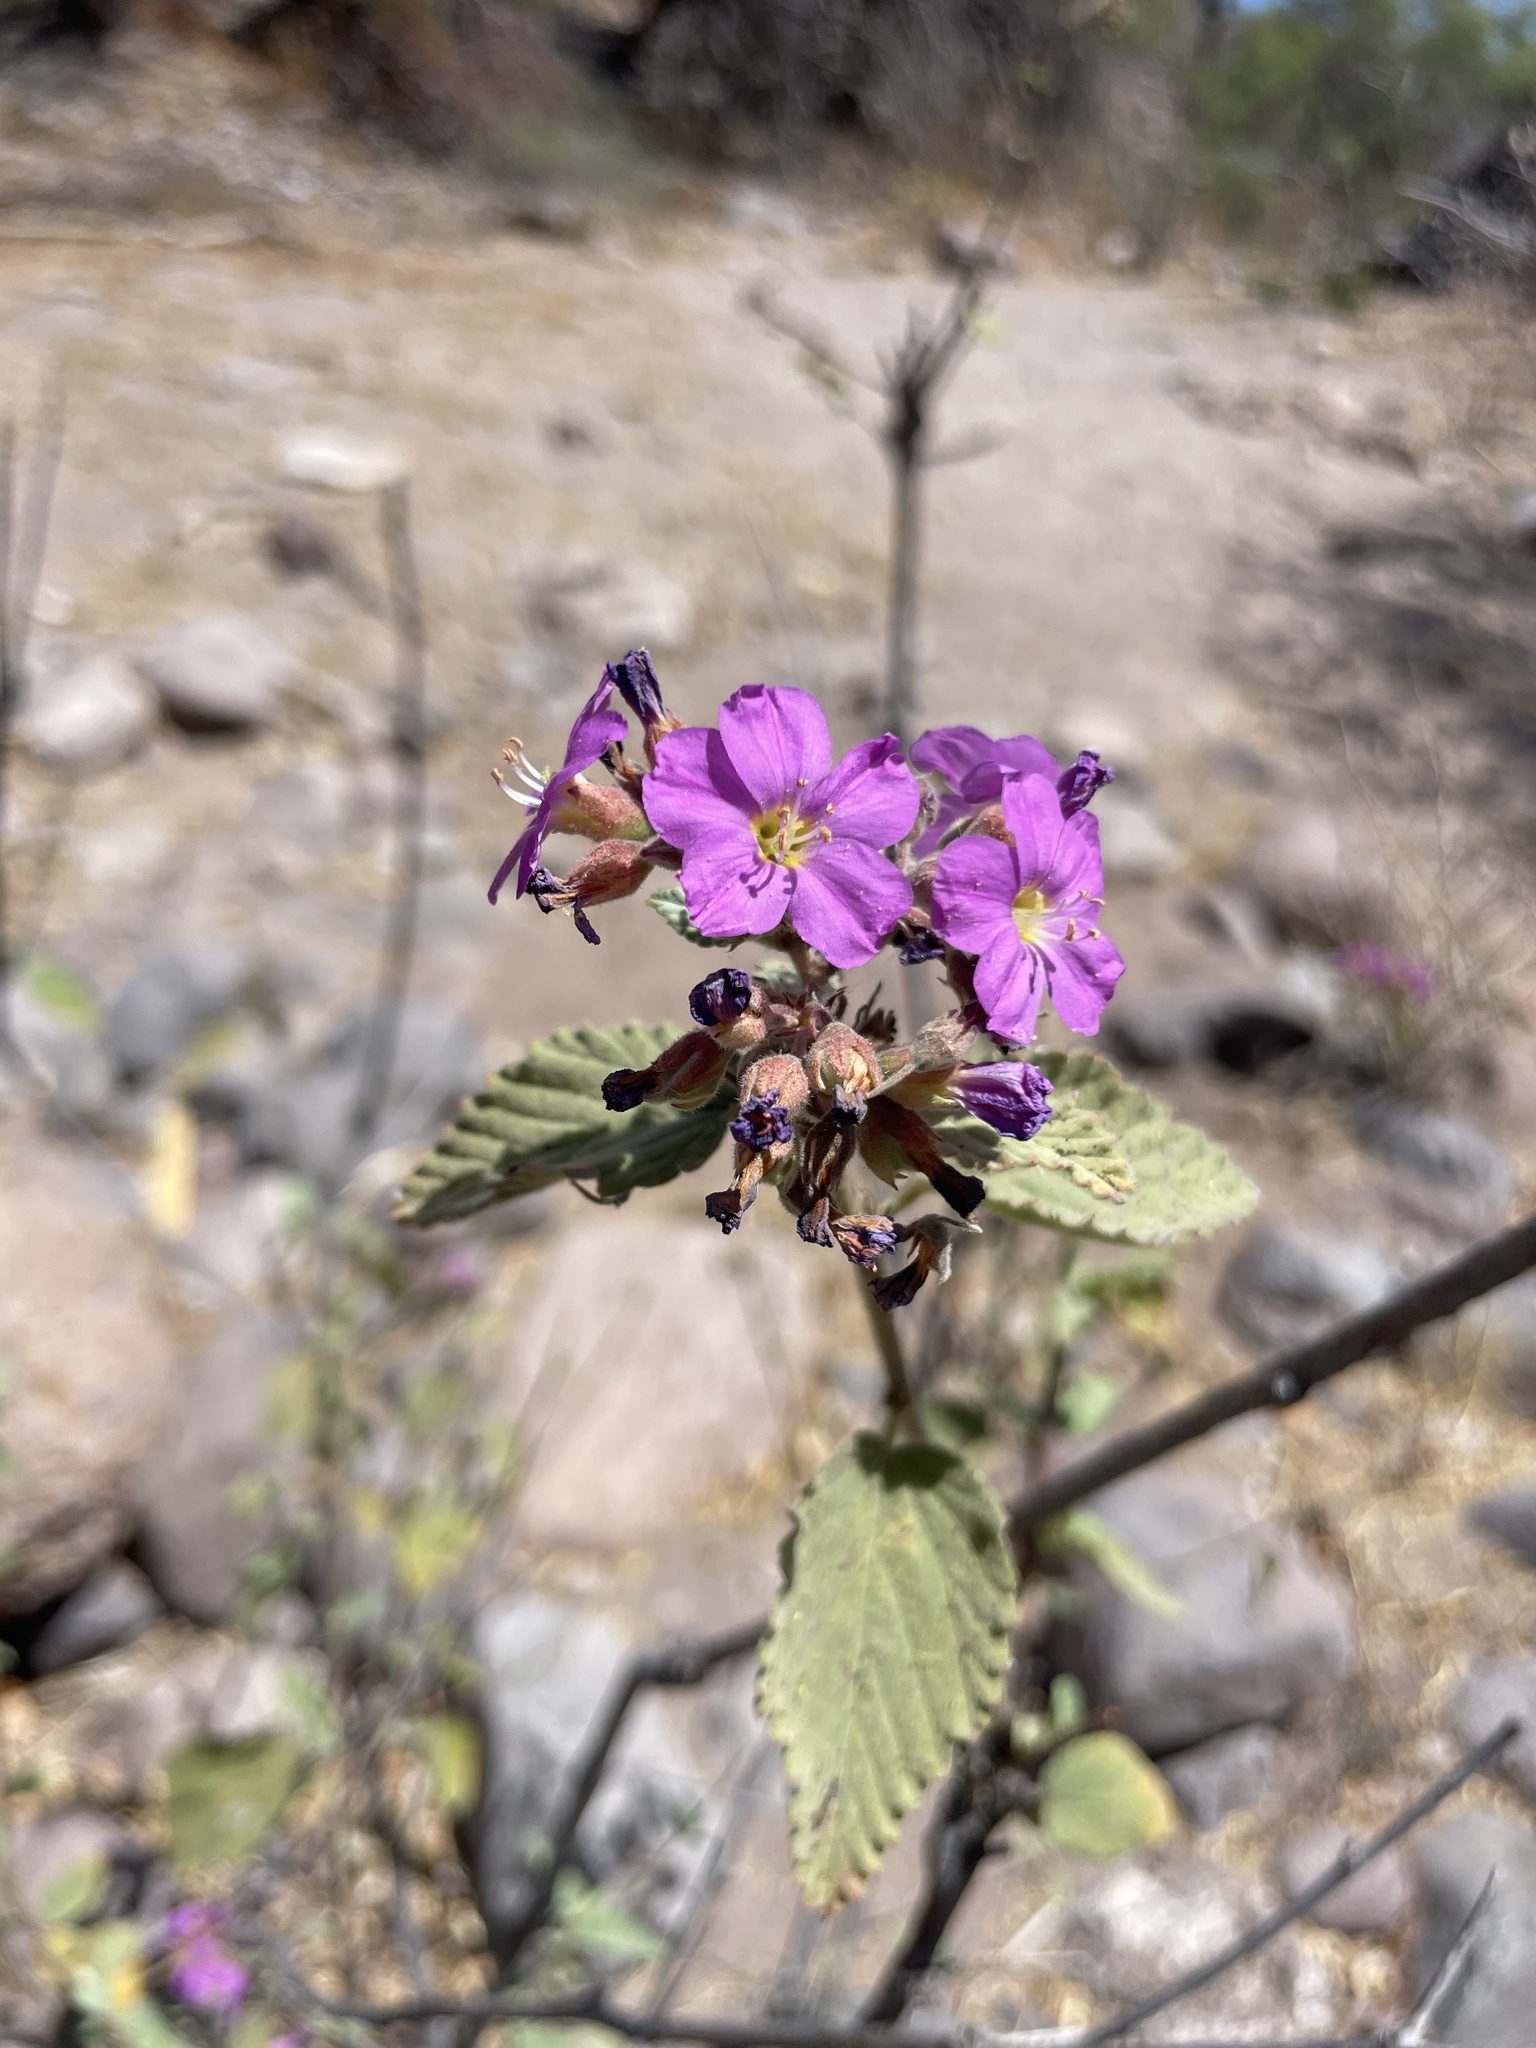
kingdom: Plantae
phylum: Tracheophyta
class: Magnoliopsida
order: Malvales
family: Malvaceae
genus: Melochia
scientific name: Melochia tomentosa
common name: Black torch
